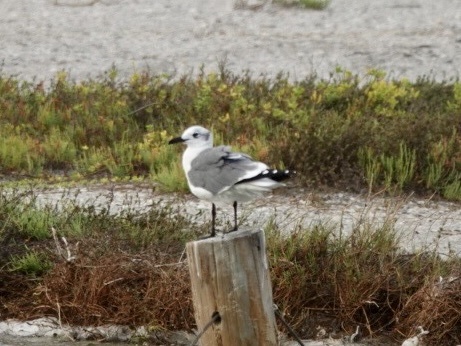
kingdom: Animalia
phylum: Chordata
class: Aves
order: Charadriiformes
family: Laridae
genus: Leucophaeus
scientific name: Leucophaeus atricilla
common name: Laughing gull
